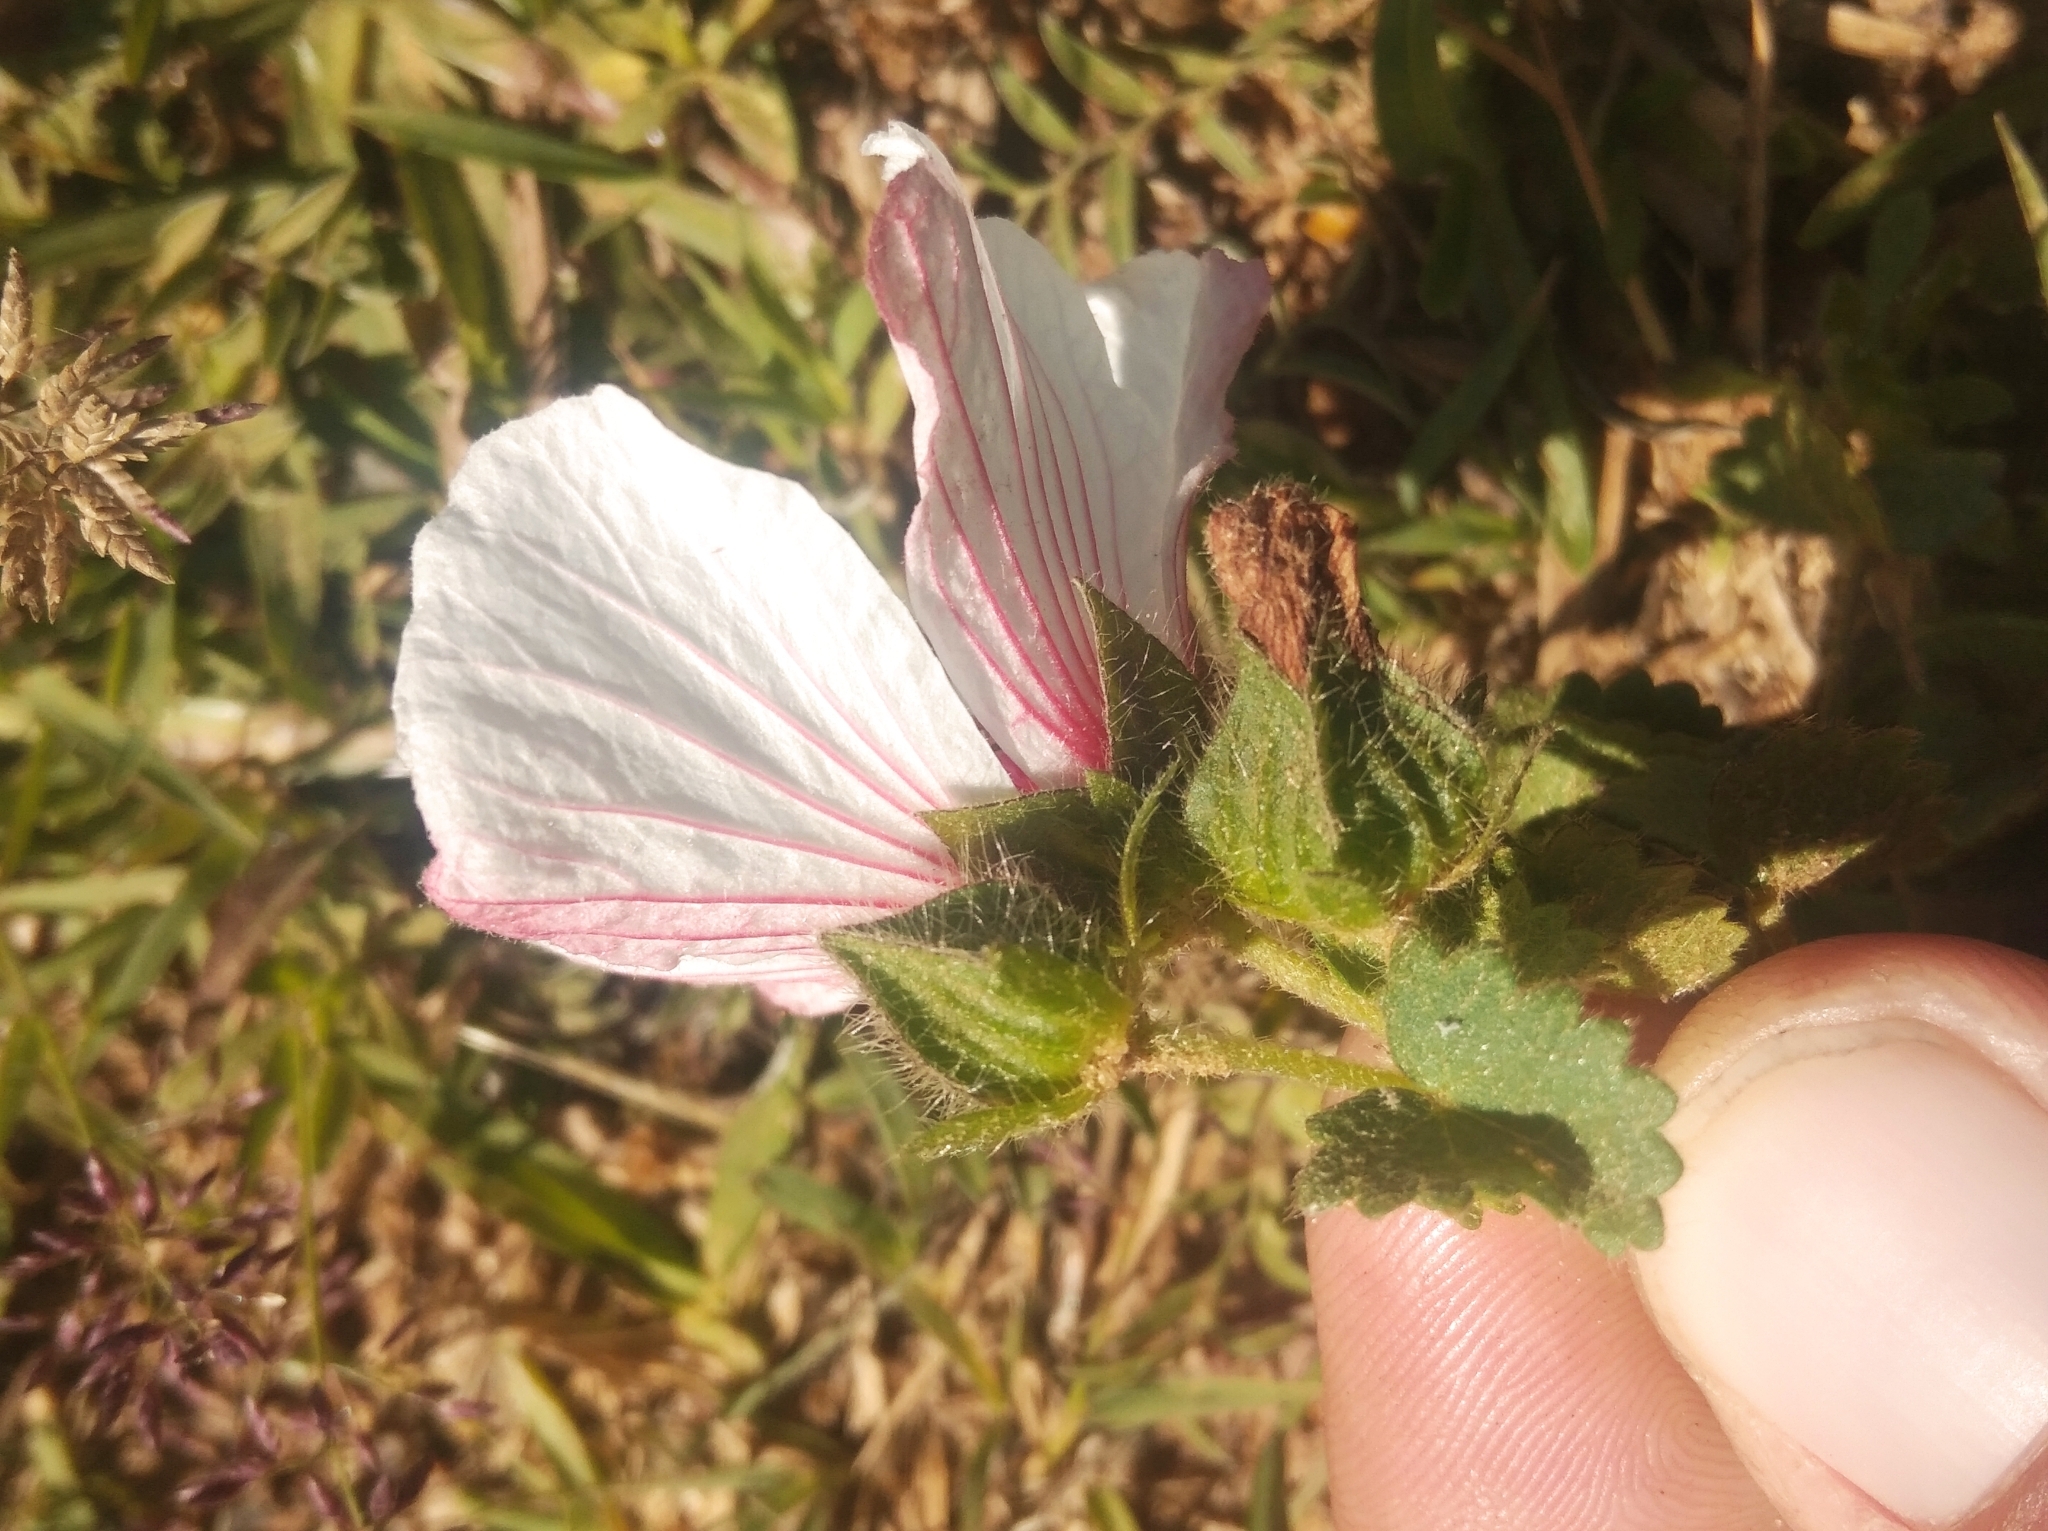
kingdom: Plantae
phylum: Tracheophyta
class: Magnoliopsida
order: Malvales
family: Malvaceae
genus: Pavonia
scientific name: Pavonia glechomoides
